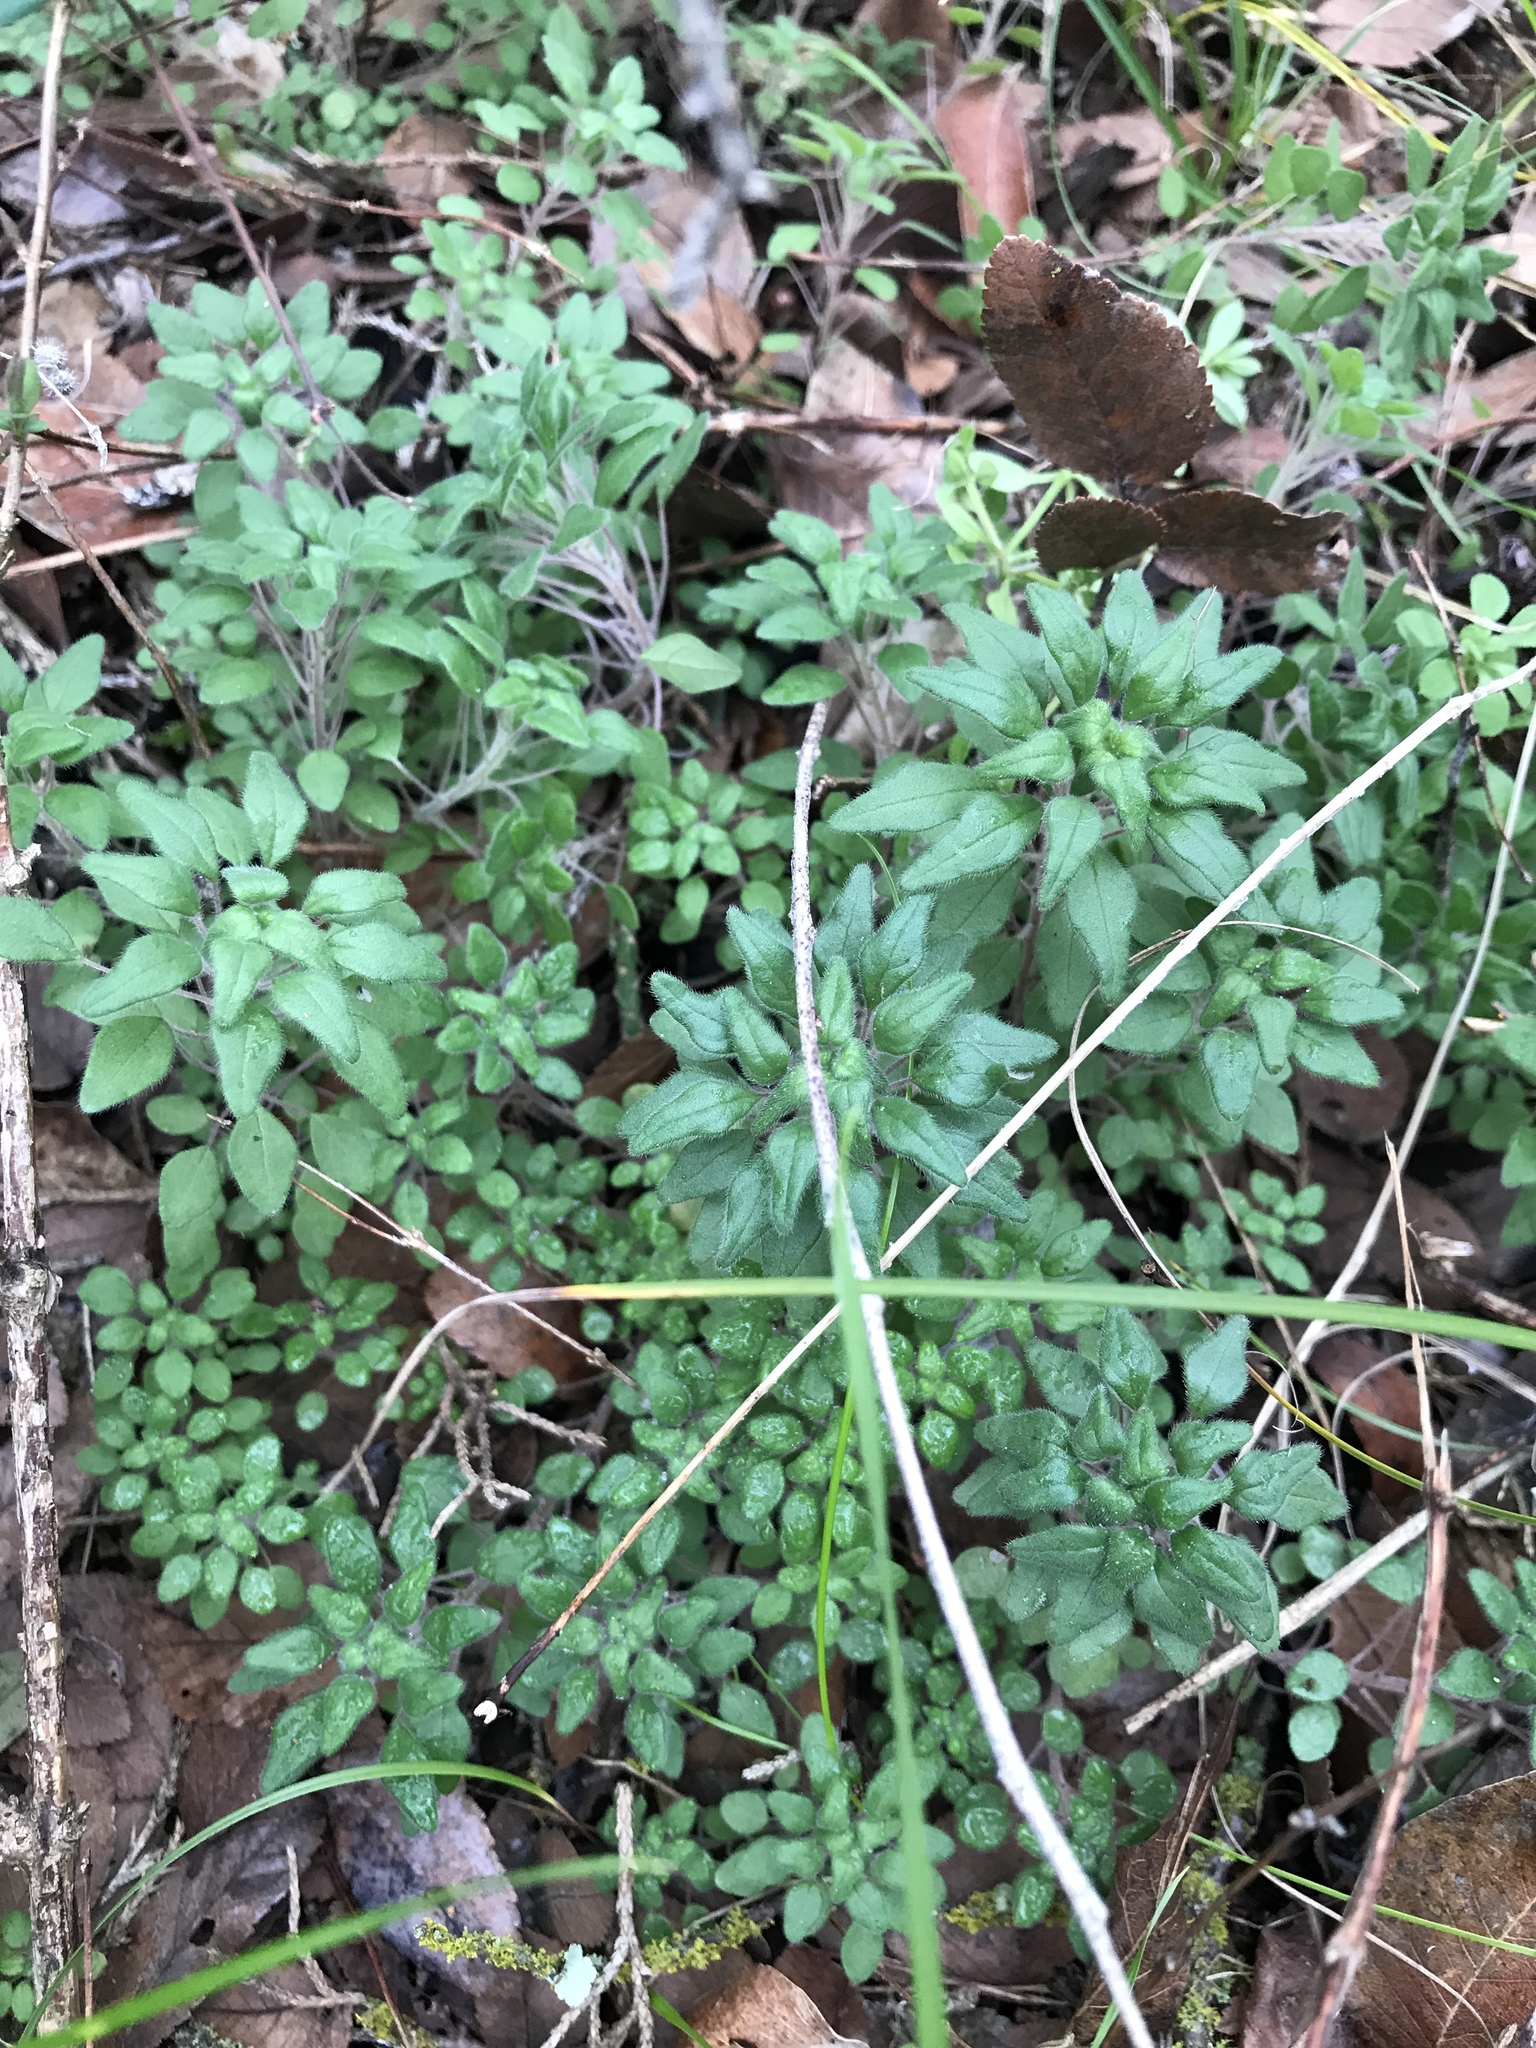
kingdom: Plantae
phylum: Tracheophyta
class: Magnoliopsida
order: Rosales
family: Urticaceae
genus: Parietaria
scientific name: Parietaria pensylvanica
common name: Pennsylvania pellitory
